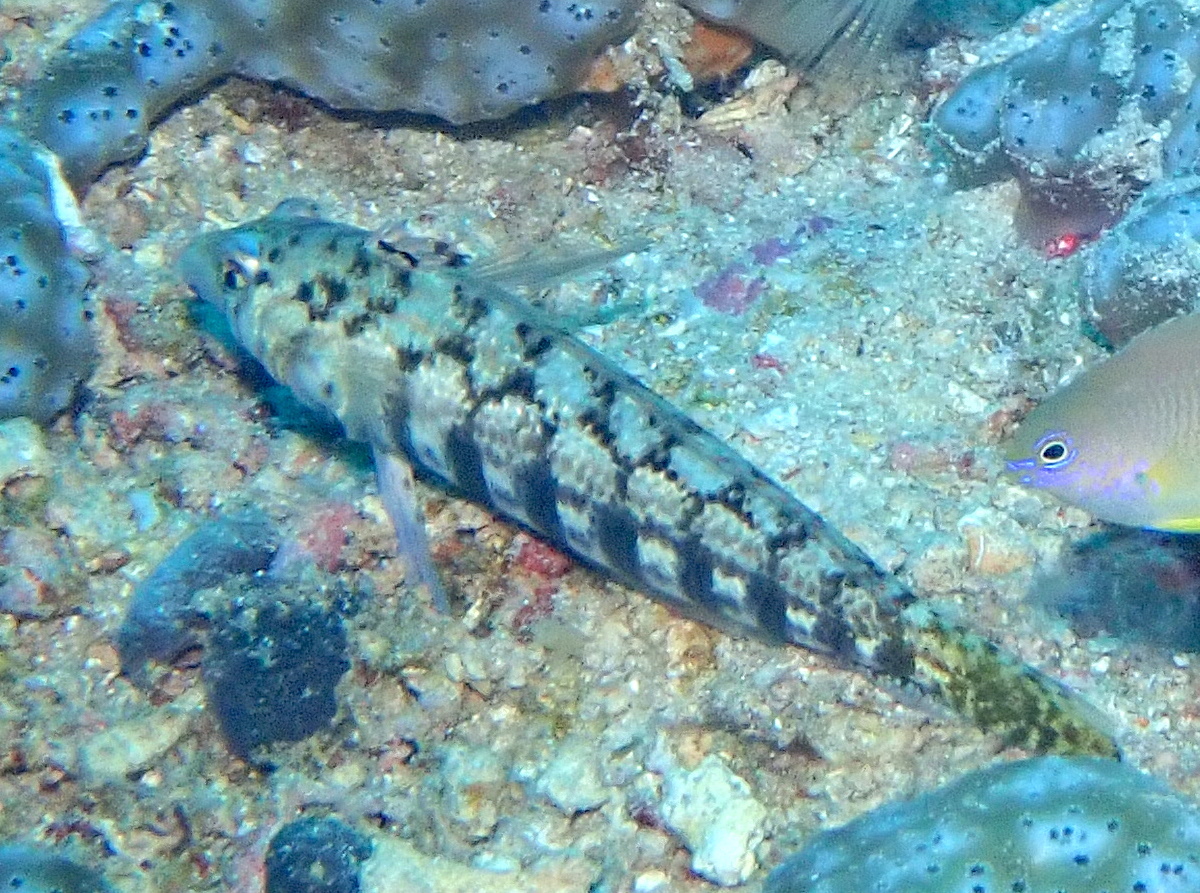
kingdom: Animalia
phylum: Chordata
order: Perciformes
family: Pinguipedidae
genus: Parapercis
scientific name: Parapercis cylindrica
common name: Cylindrical sandperch
